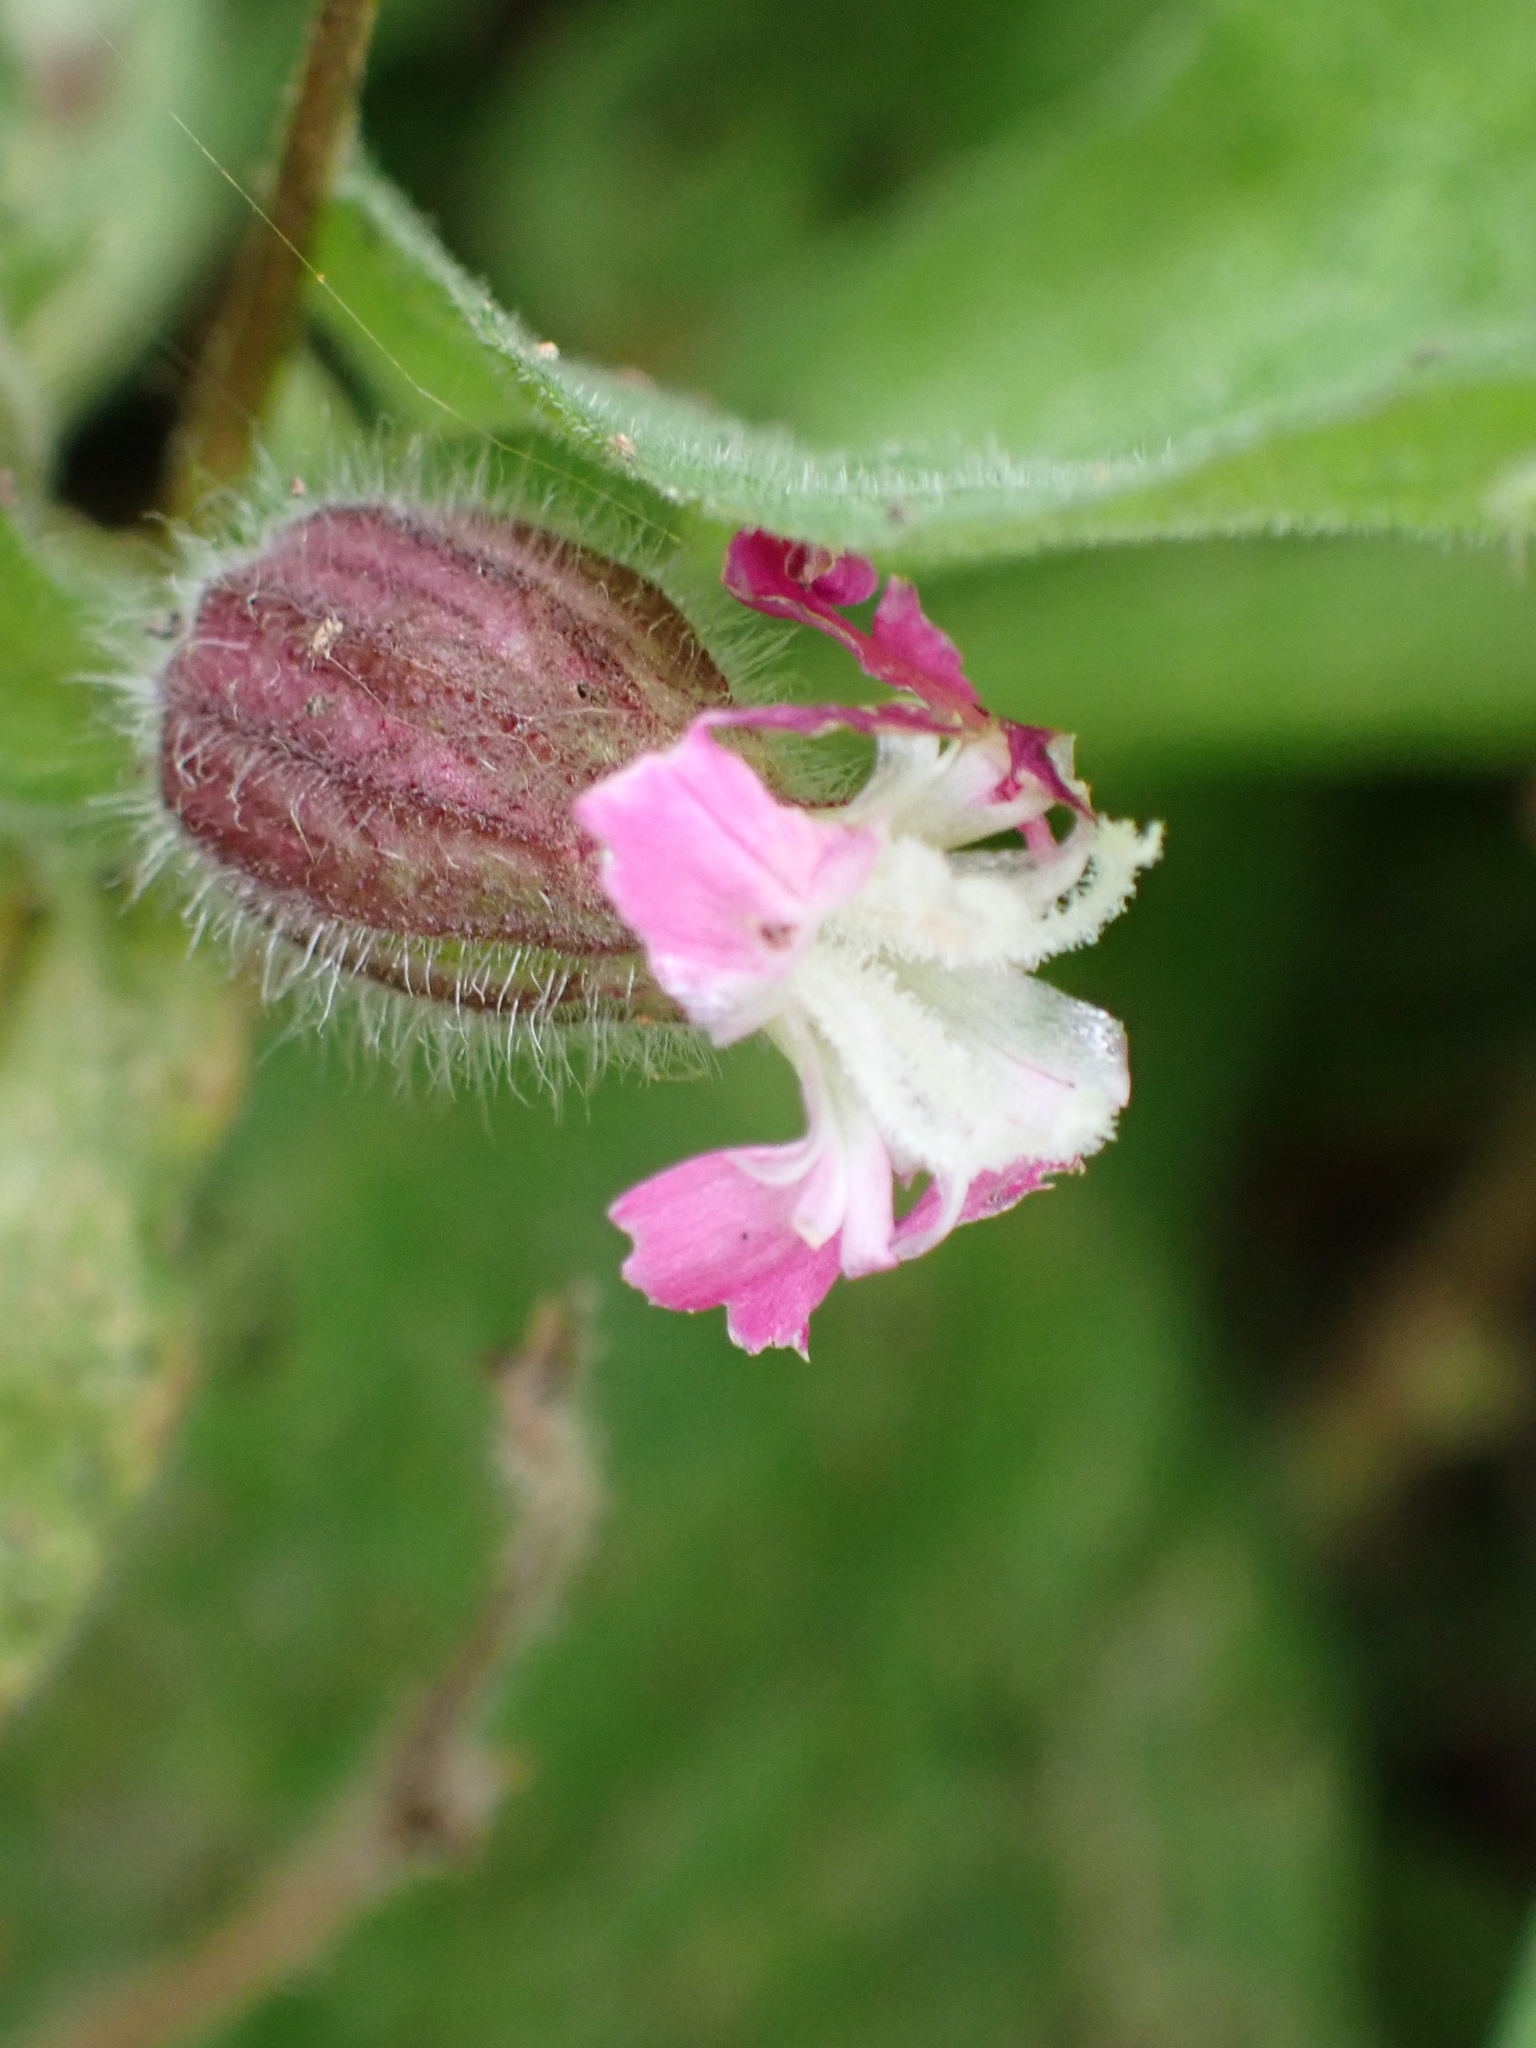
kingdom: Plantae
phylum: Tracheophyta
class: Magnoliopsida
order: Caryophyllales
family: Caryophyllaceae
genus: Silene
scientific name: Silene dioica
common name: Red campion
